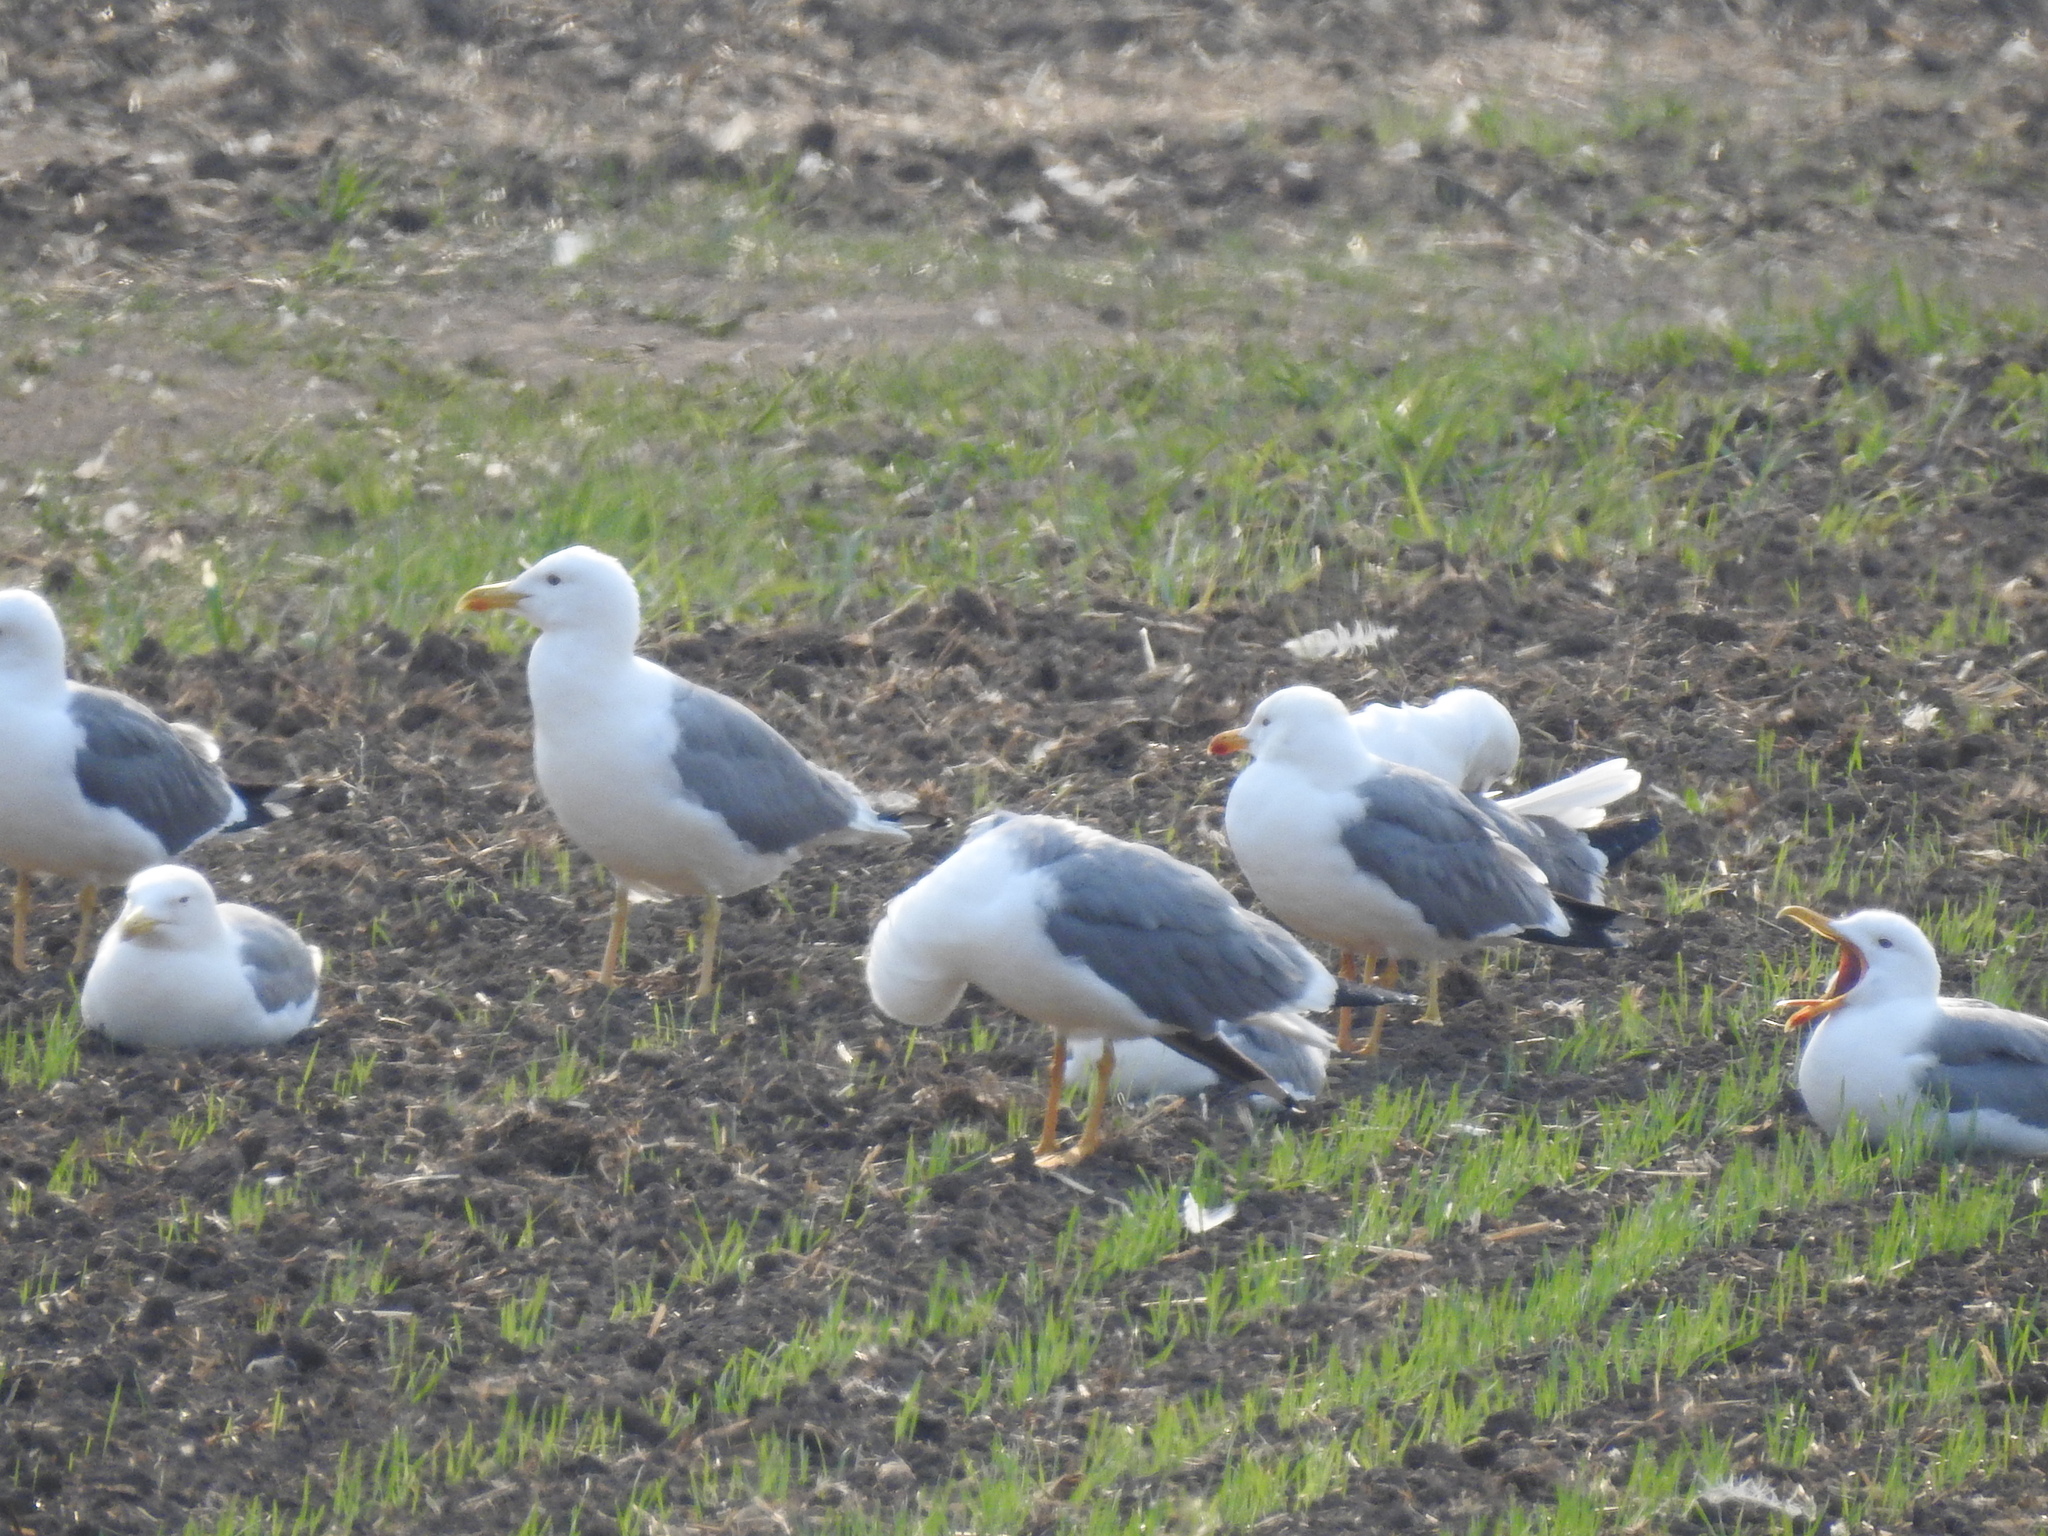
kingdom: Animalia
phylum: Chordata
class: Aves
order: Charadriiformes
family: Laridae
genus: Larus
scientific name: Larus fuscus
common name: Lesser black-backed gull
